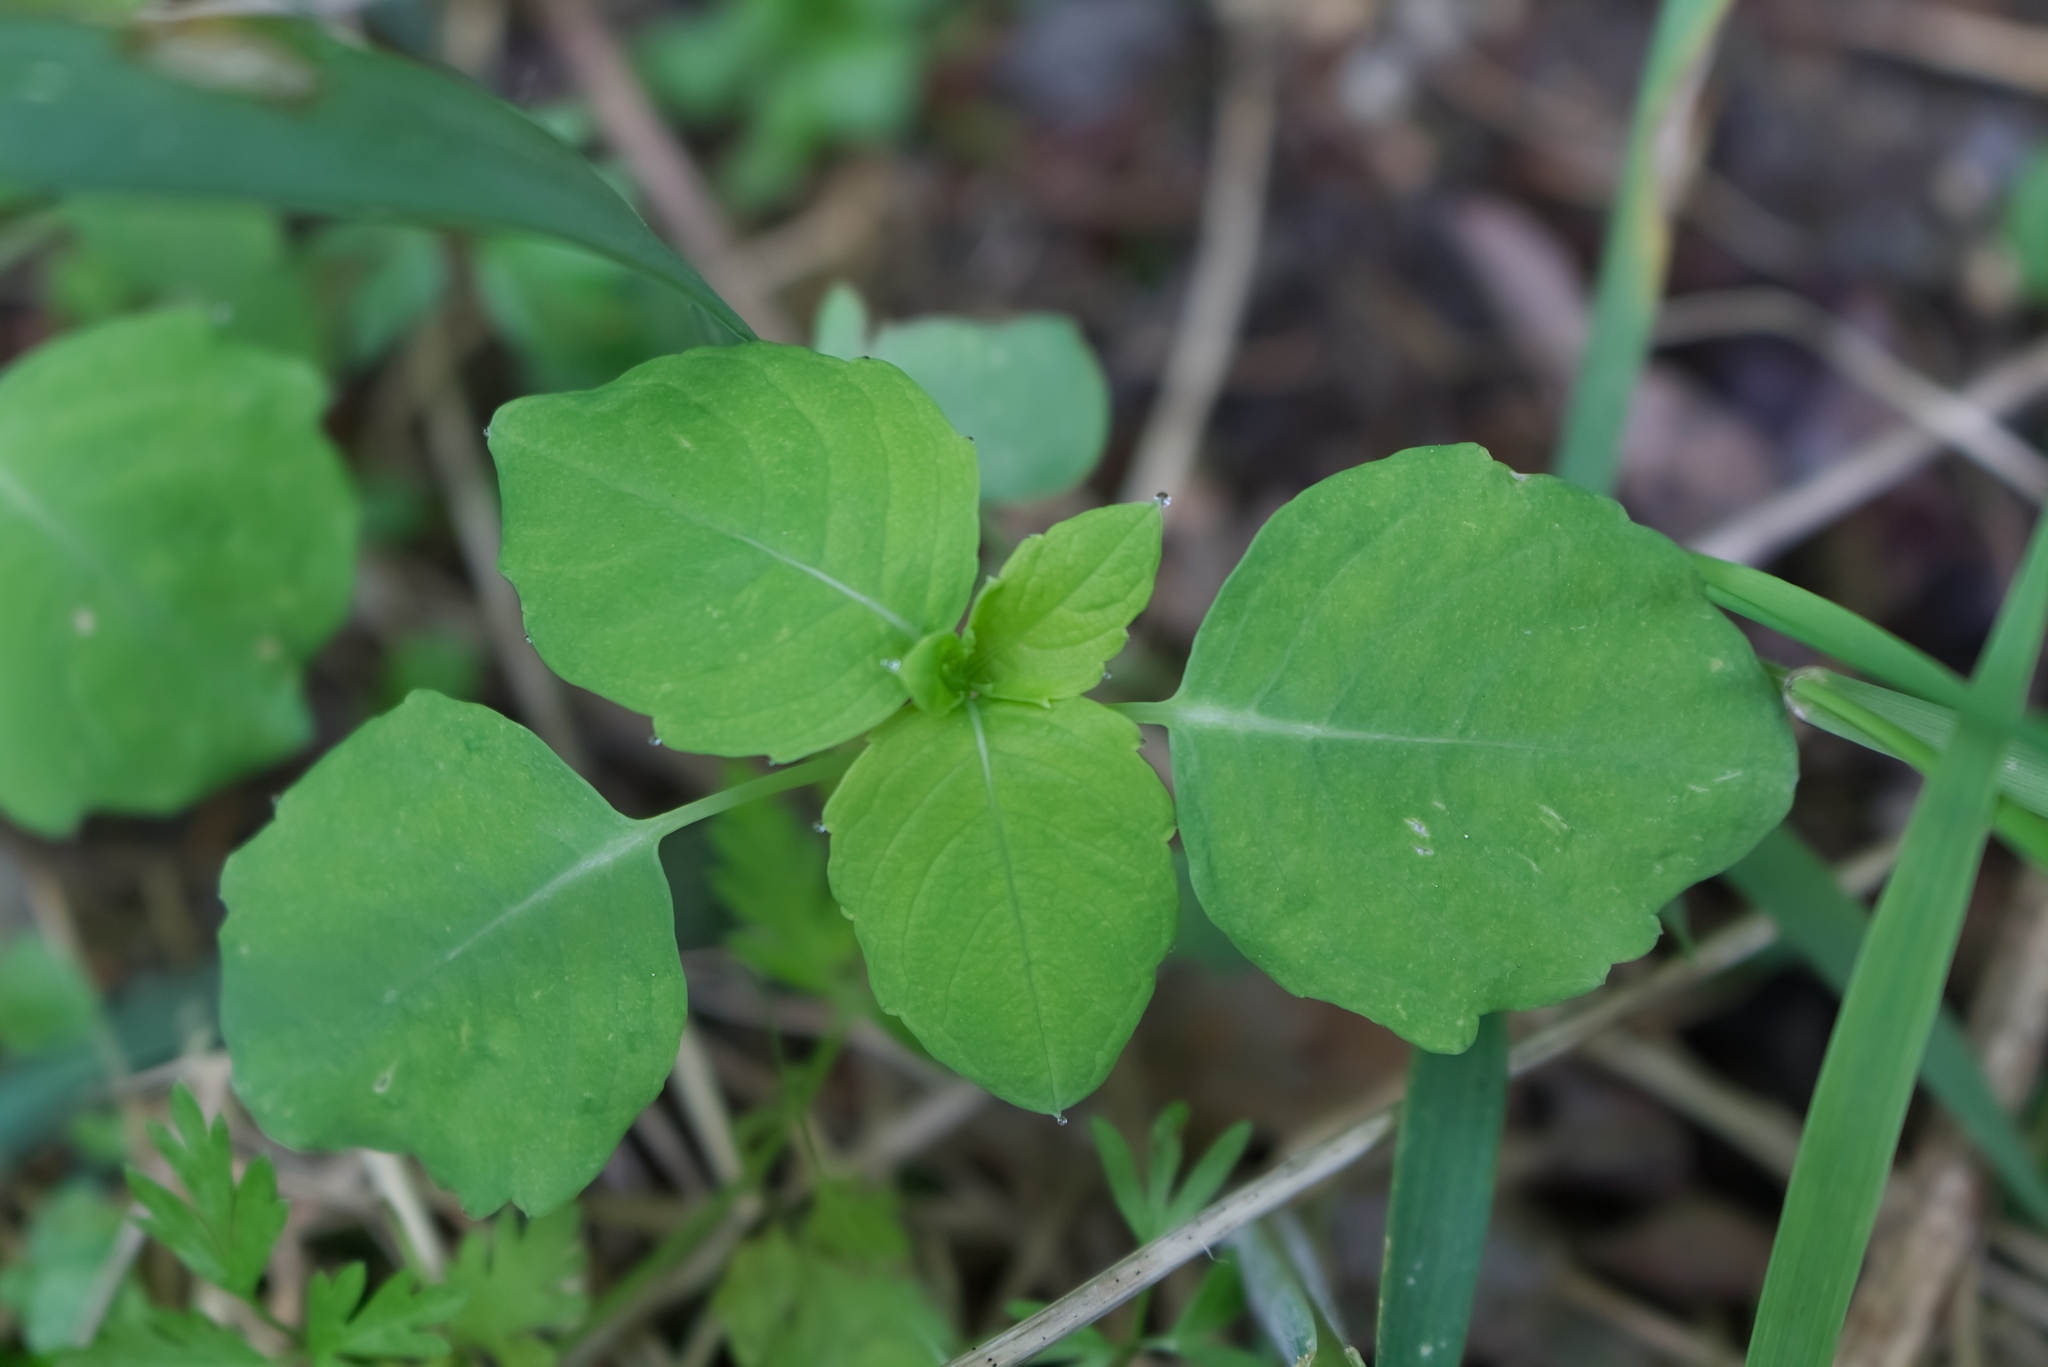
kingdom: Plantae
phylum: Tracheophyta
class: Magnoliopsida
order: Ericales
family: Balsaminaceae
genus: Impatiens
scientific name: Impatiens noli-tangere
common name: Touch-me-not balsam
